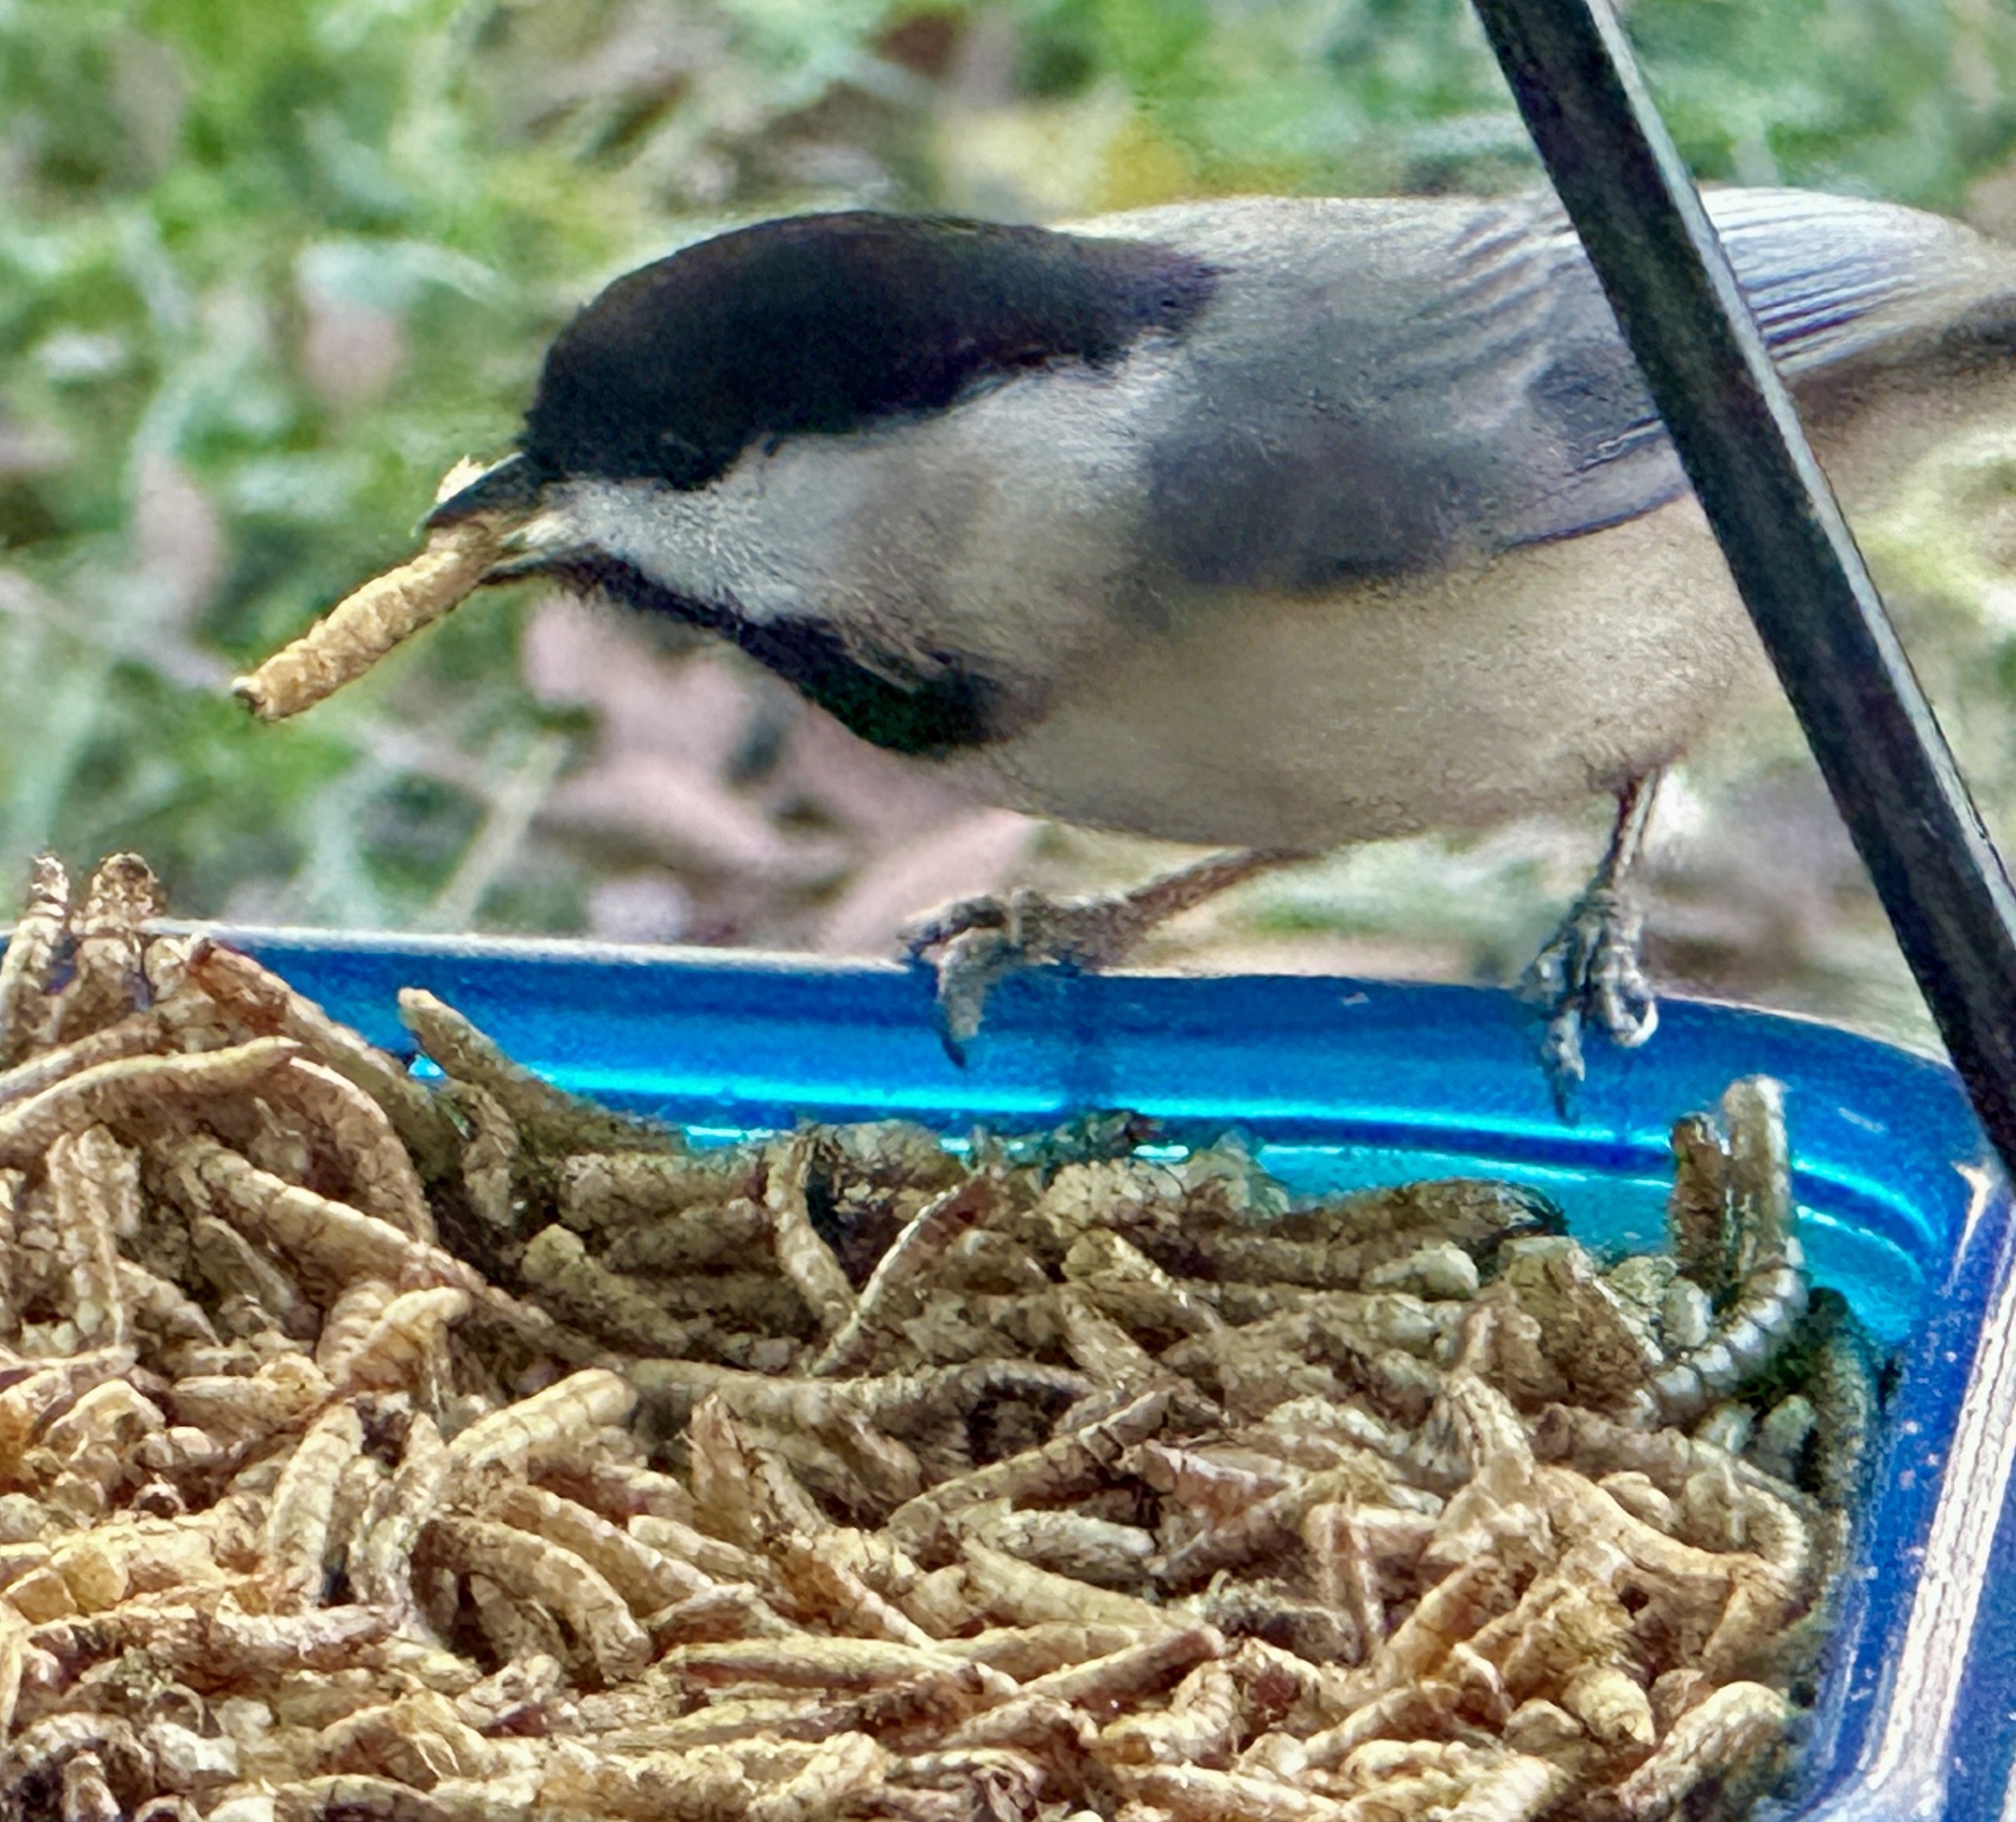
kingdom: Animalia
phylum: Chordata
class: Aves
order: Passeriformes
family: Paridae
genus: Poecile
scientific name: Poecile carolinensis
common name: Carolina chickadee
